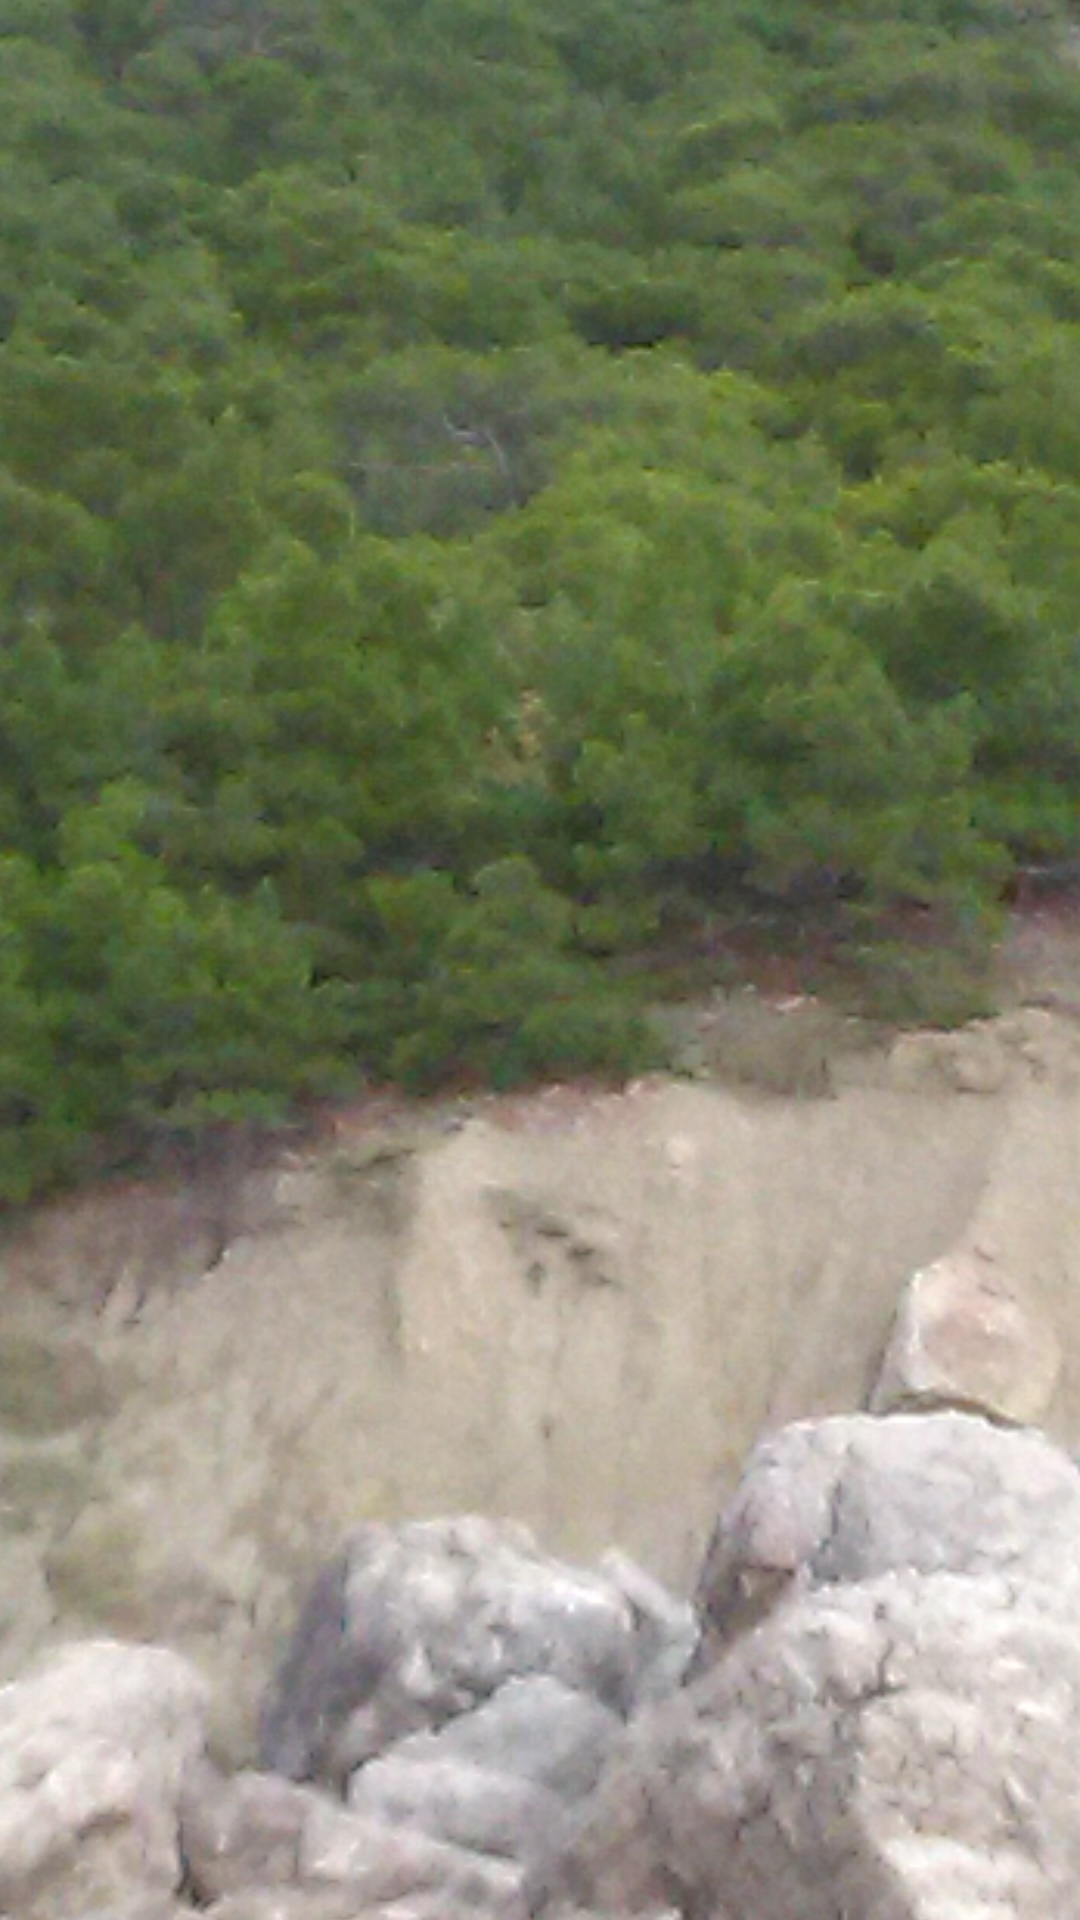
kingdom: Plantae
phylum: Tracheophyta
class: Pinopsida
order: Pinales
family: Pinaceae
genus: Pinus
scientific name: Pinus brutia
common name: Turkish pine
